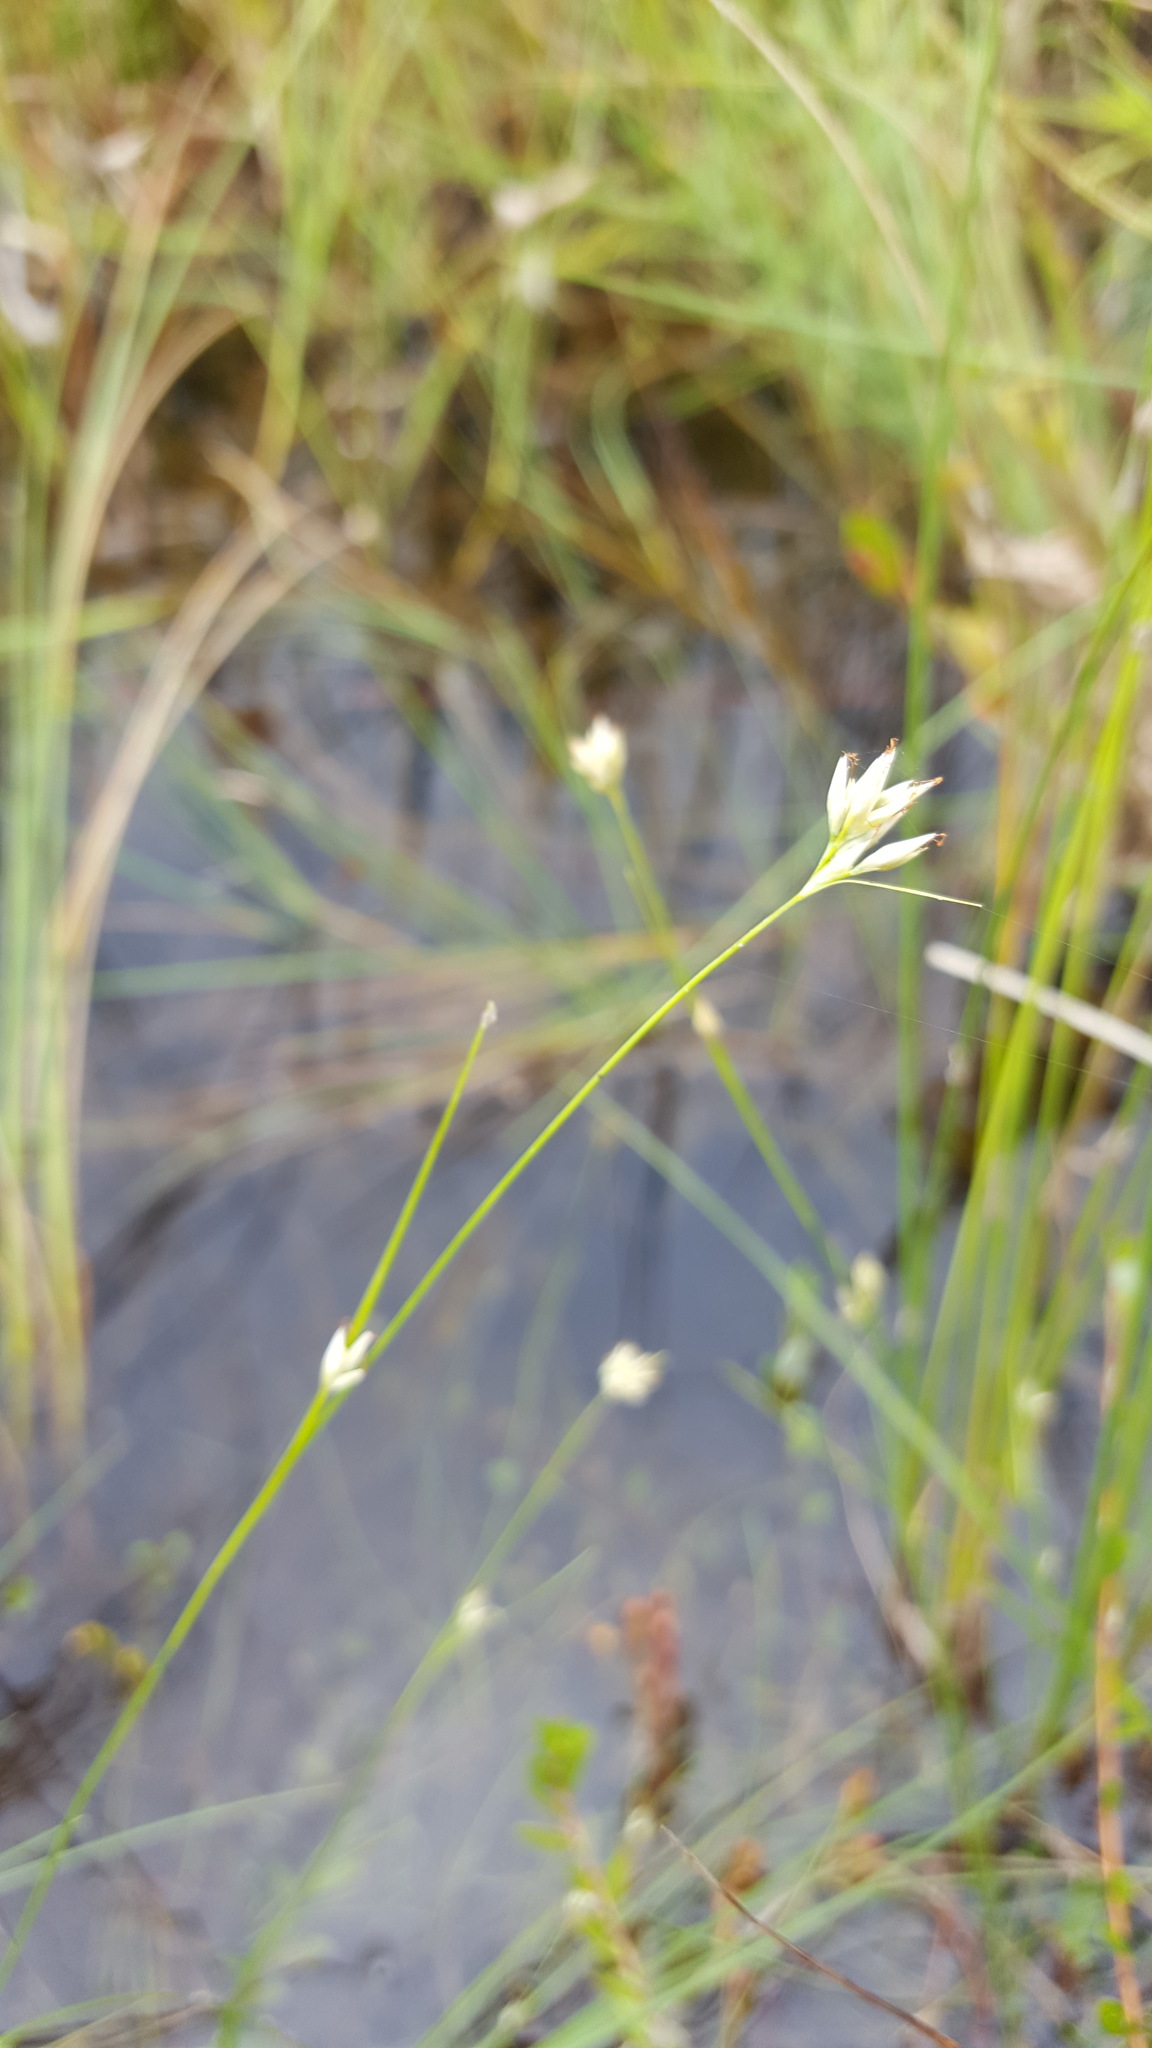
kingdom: Plantae
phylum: Tracheophyta
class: Liliopsida
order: Poales
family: Cyperaceae
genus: Rhynchospora
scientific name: Rhynchospora alba
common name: White beak-sedge
